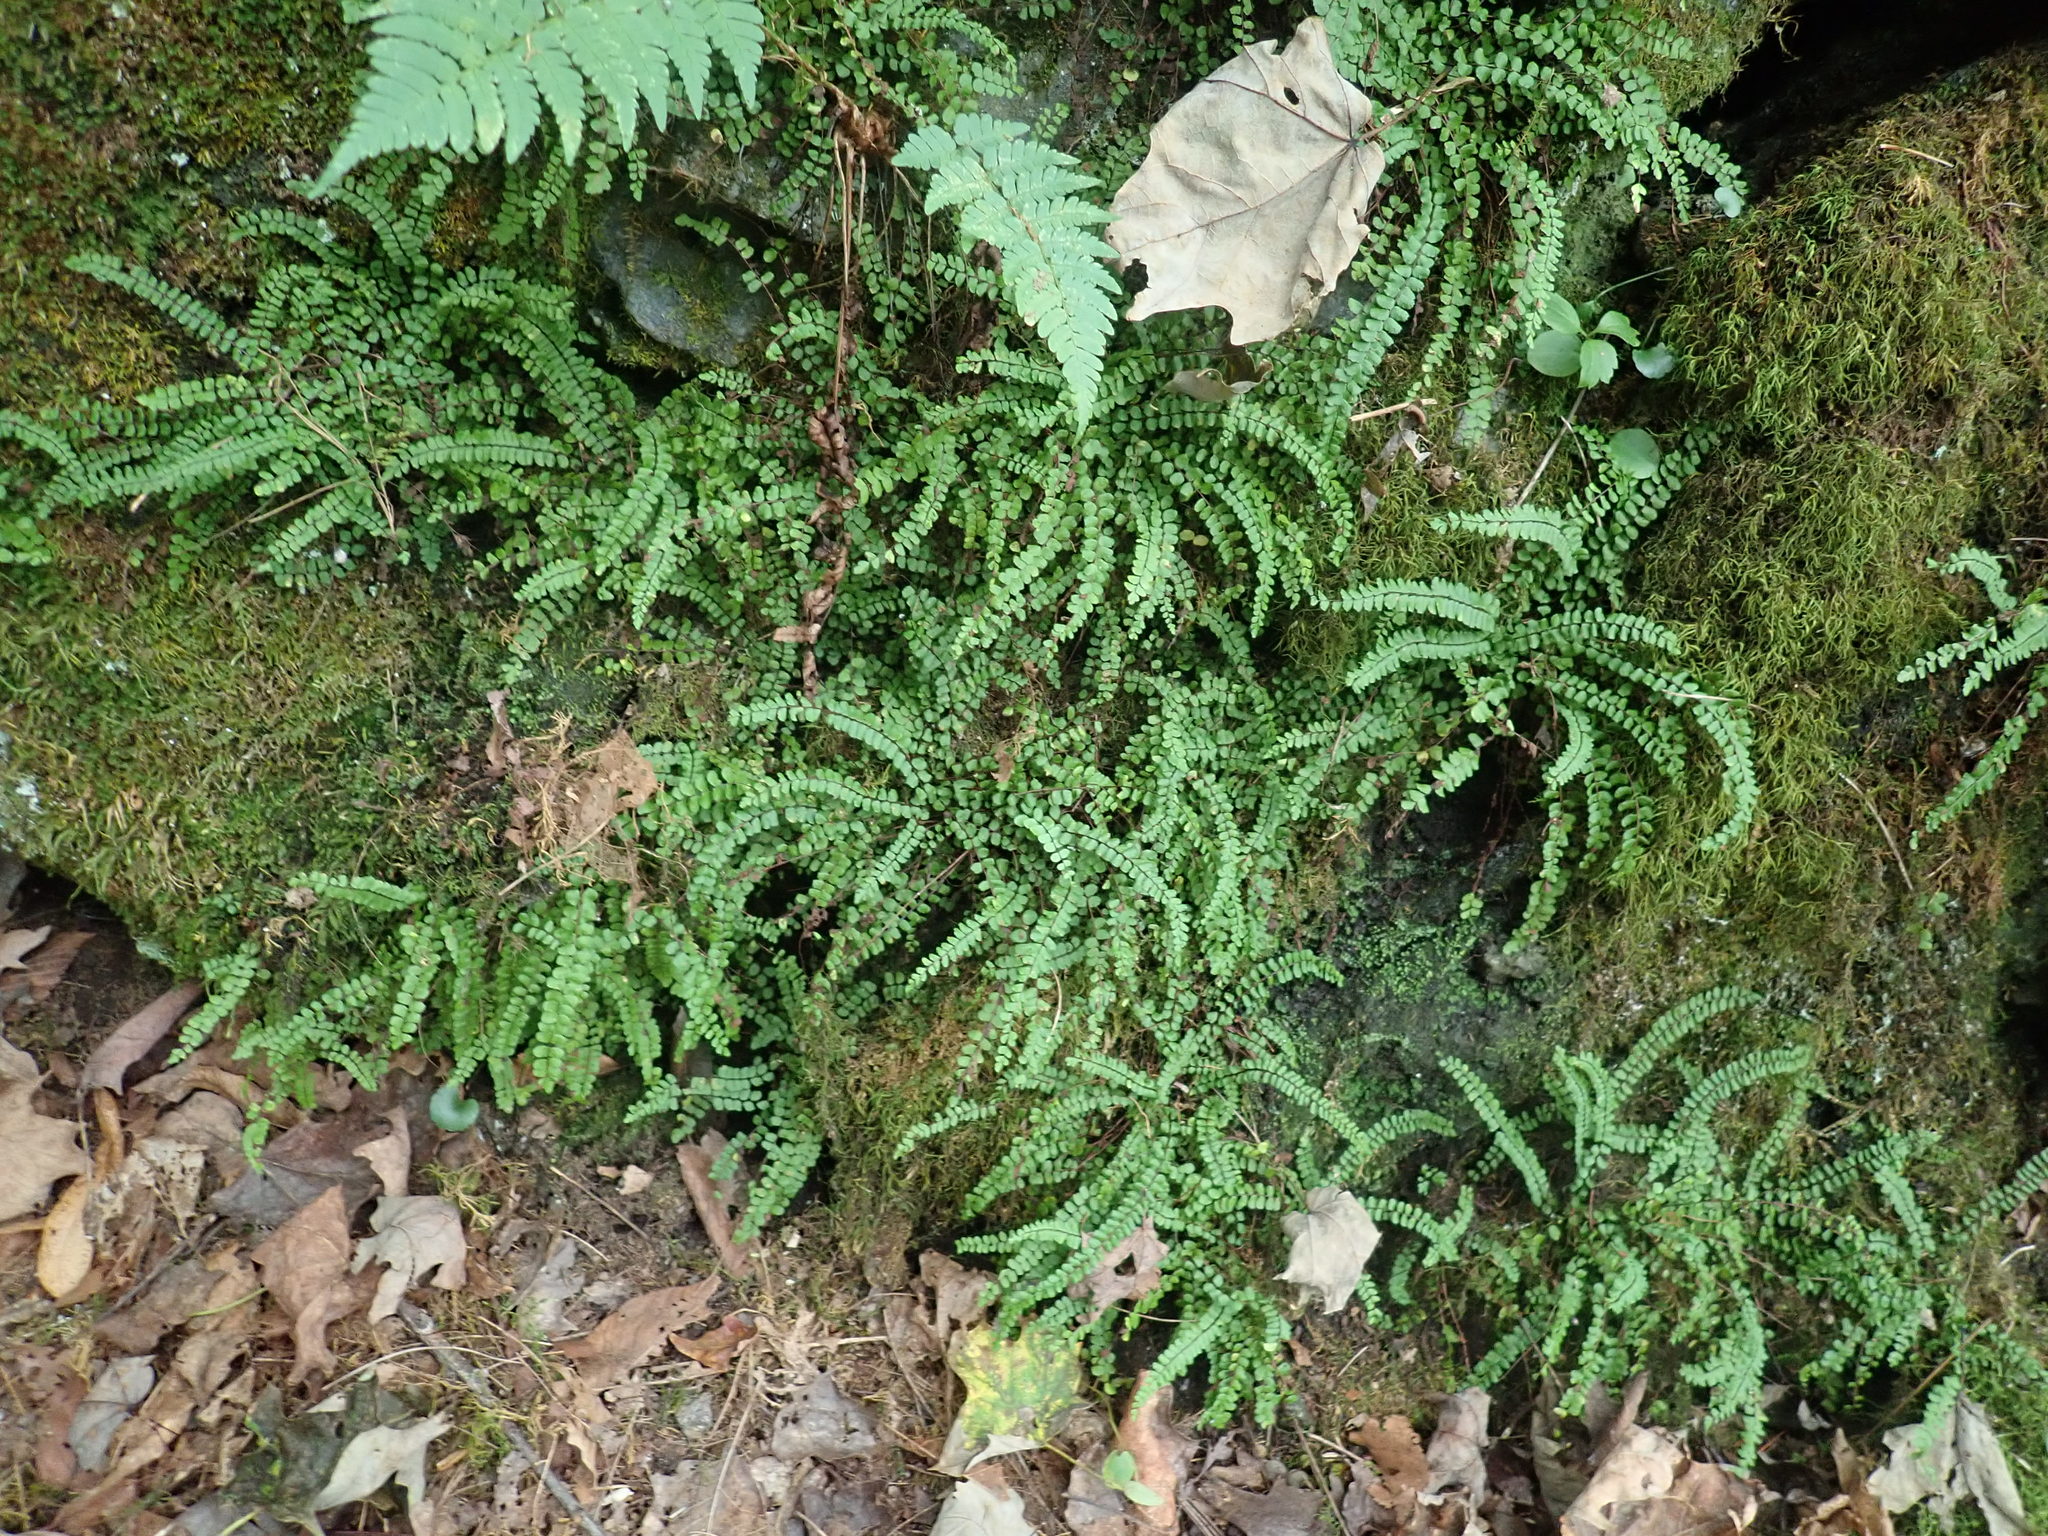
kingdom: Plantae
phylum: Tracheophyta
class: Polypodiopsida
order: Polypodiales
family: Aspleniaceae
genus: Asplenium
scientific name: Asplenium trichomanes
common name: Maidenhair spleenwort
